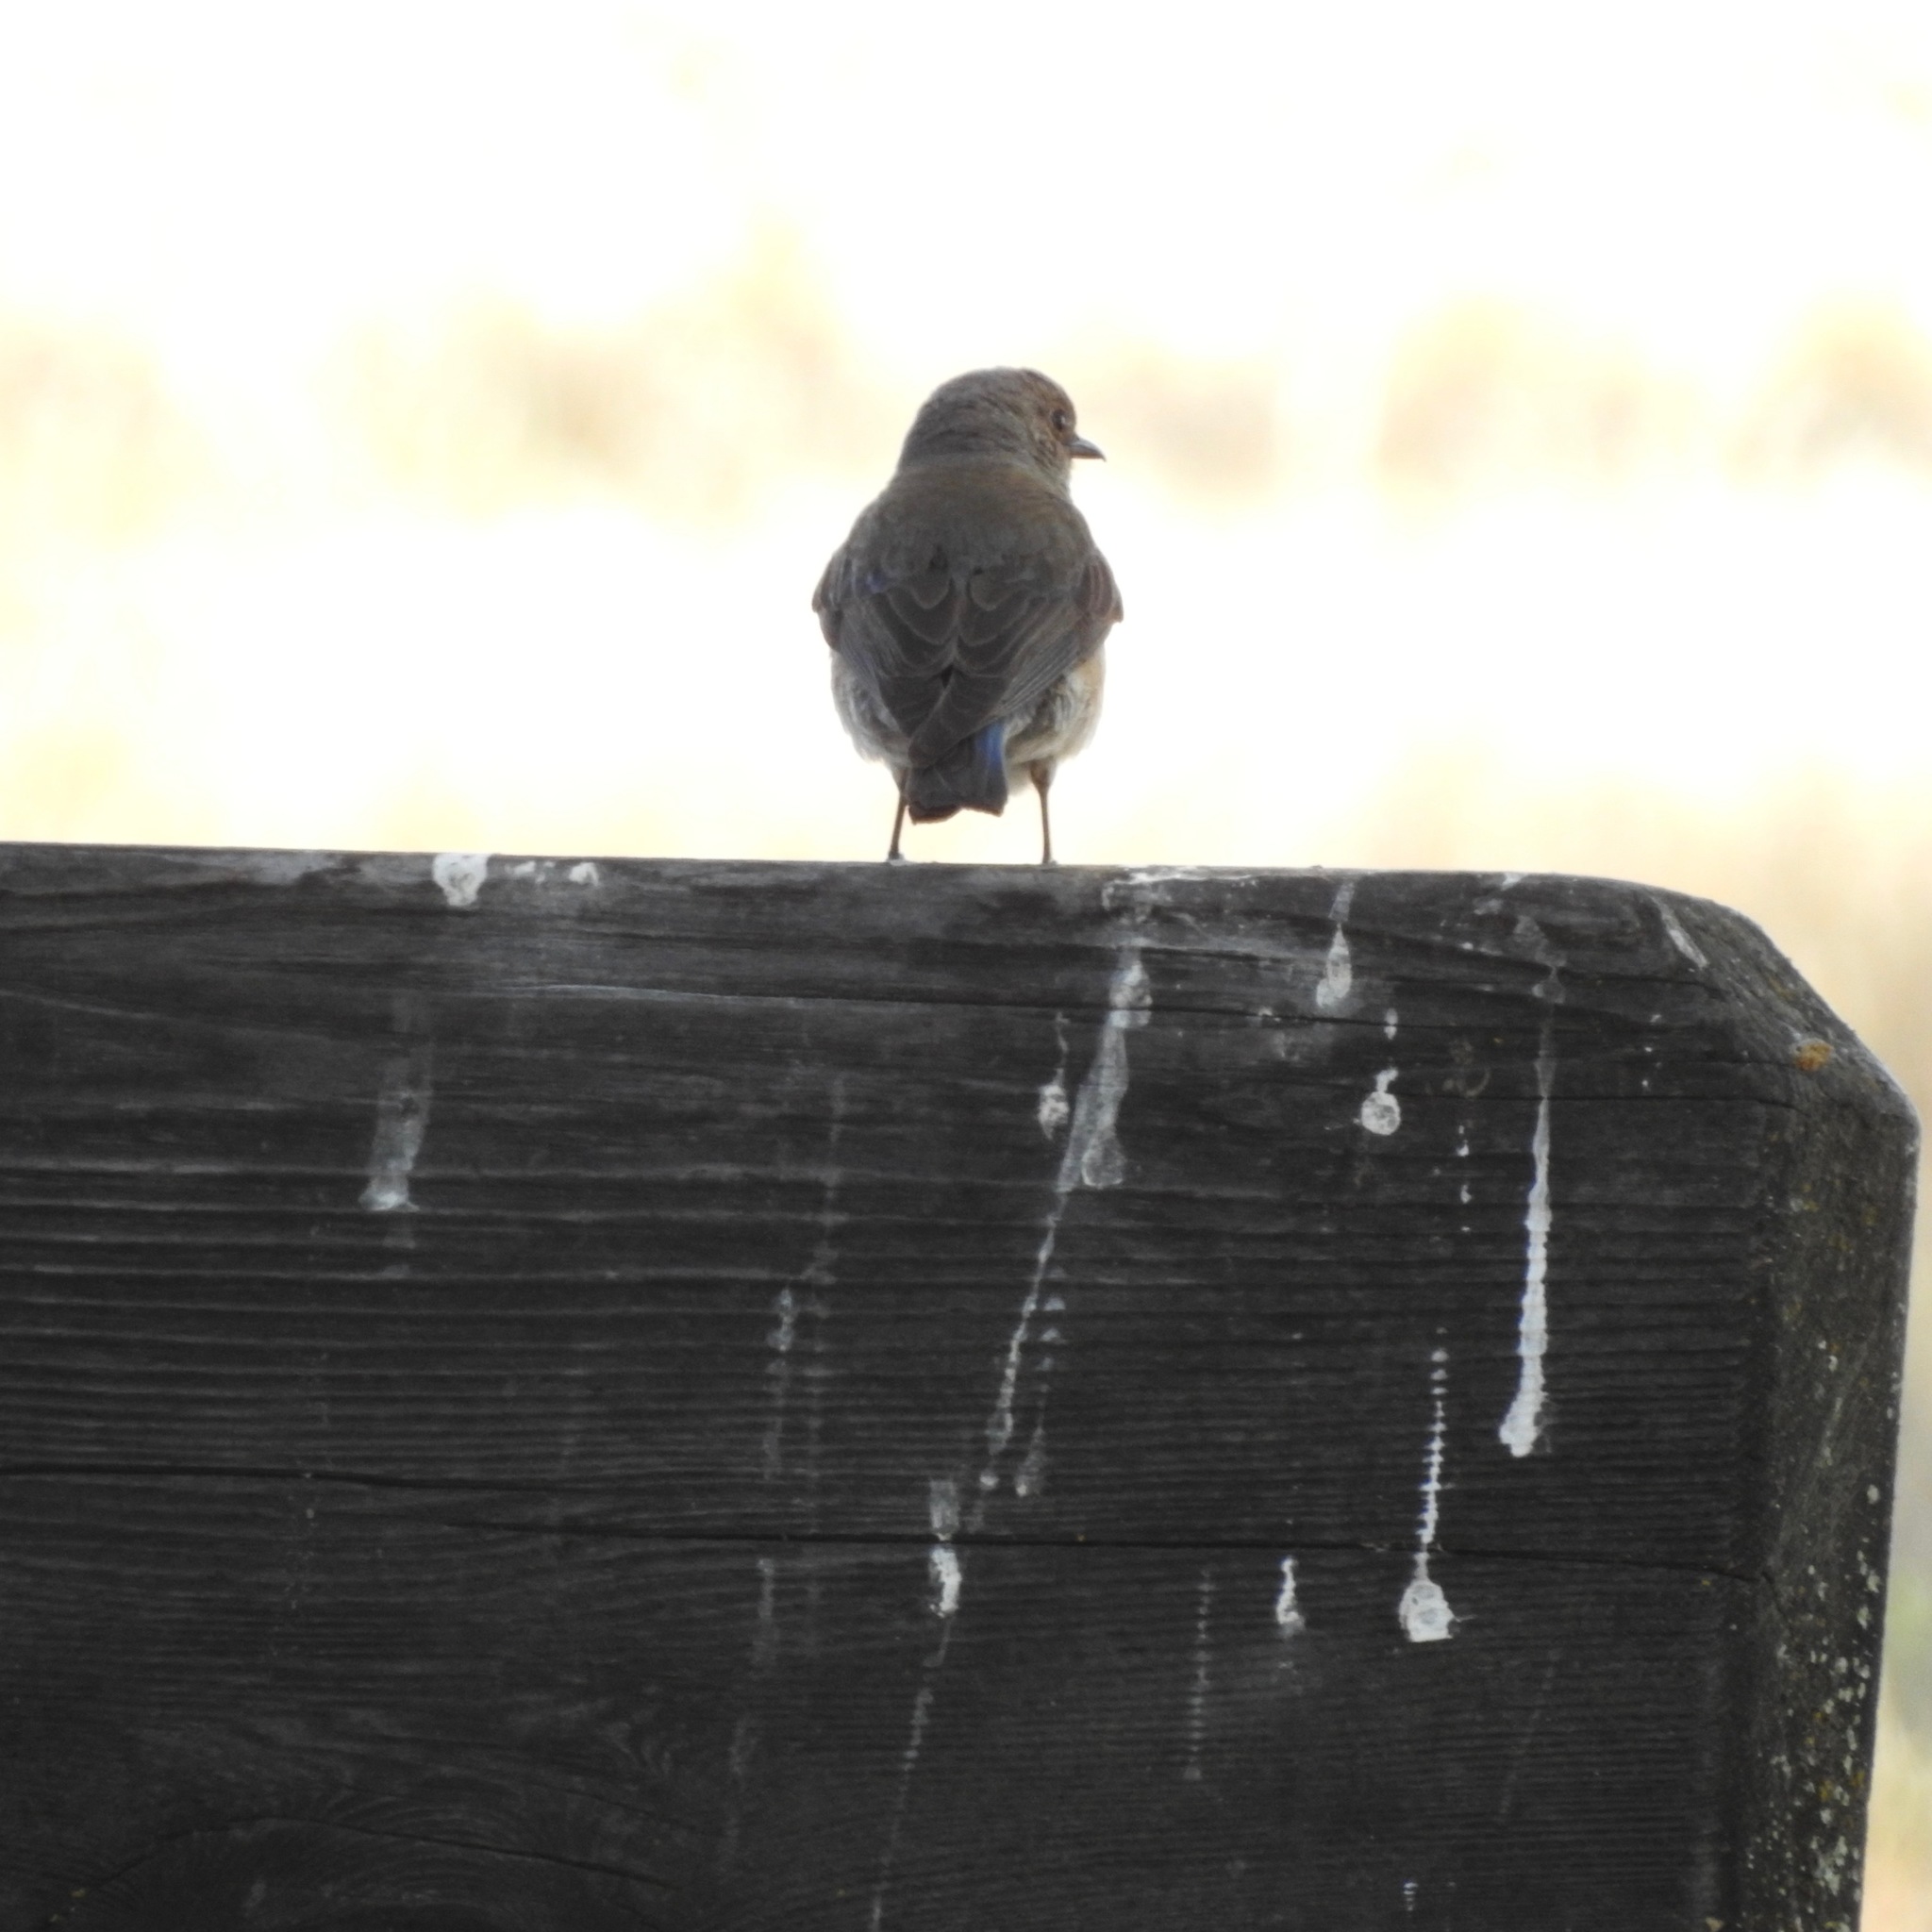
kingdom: Animalia
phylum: Chordata
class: Aves
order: Passeriformes
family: Turdidae
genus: Sialia
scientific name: Sialia mexicana
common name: Western bluebird
